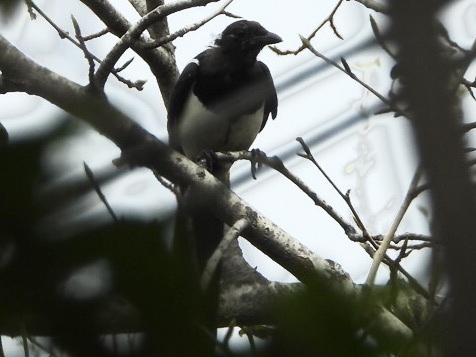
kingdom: Animalia
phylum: Chordata
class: Aves
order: Passeriformes
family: Corvidae
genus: Pica
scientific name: Pica serica
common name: Oriental magpie
